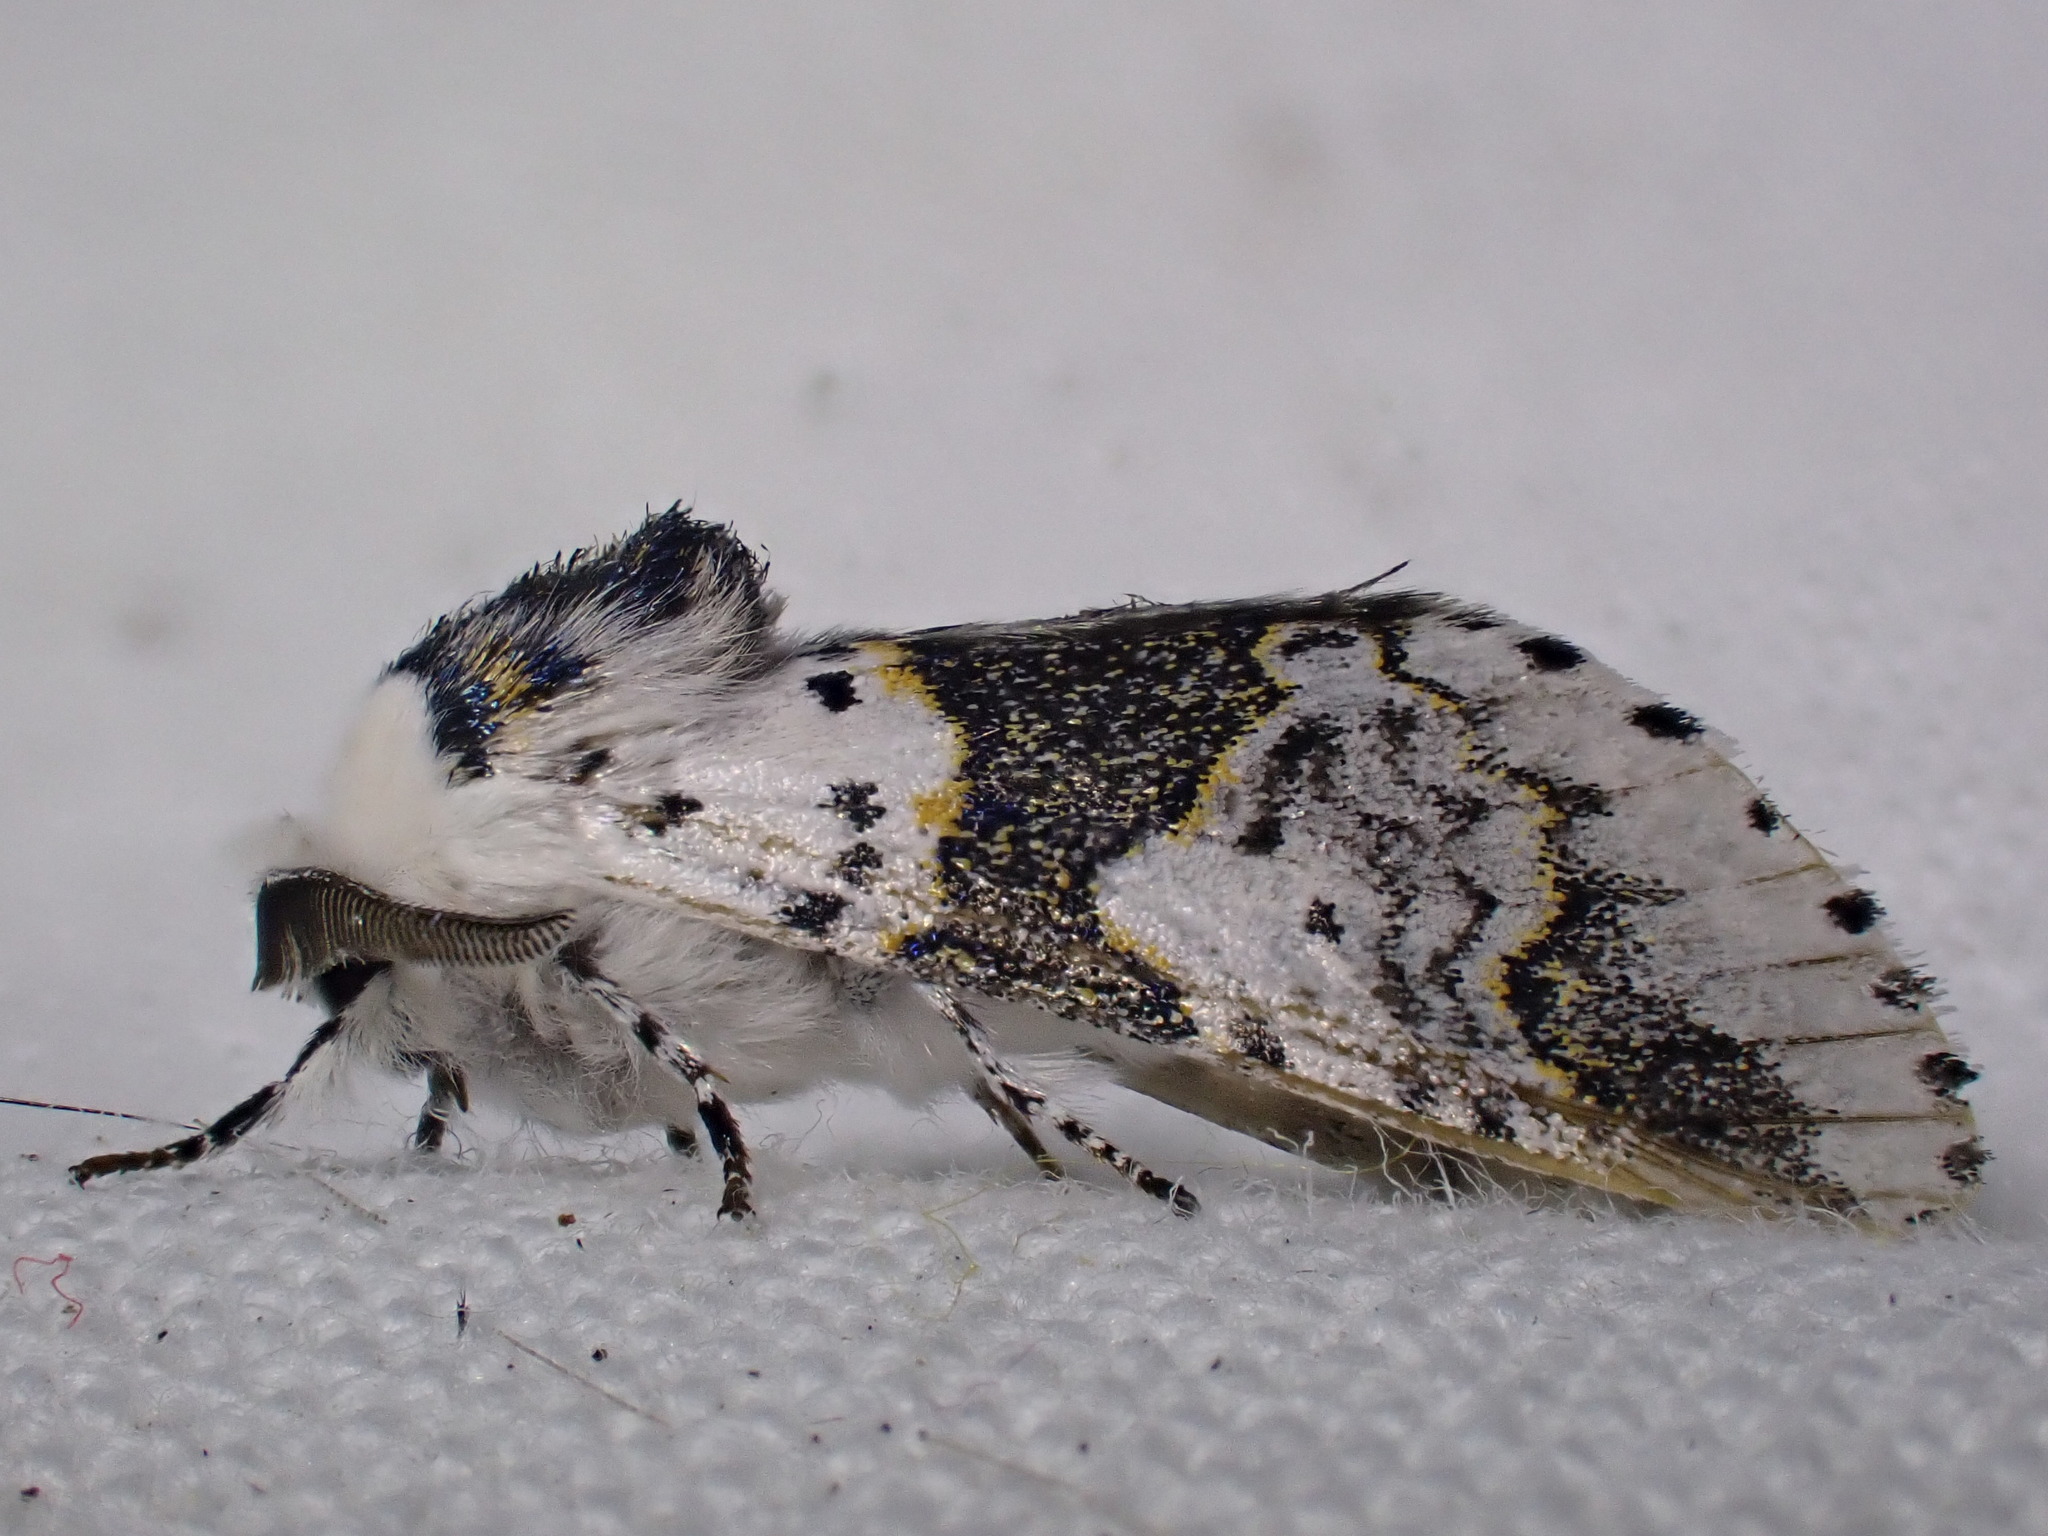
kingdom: Animalia
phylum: Arthropoda
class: Insecta
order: Lepidoptera
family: Notodontidae
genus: Furcula
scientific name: Furcula bicuspis
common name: Alder kitten
